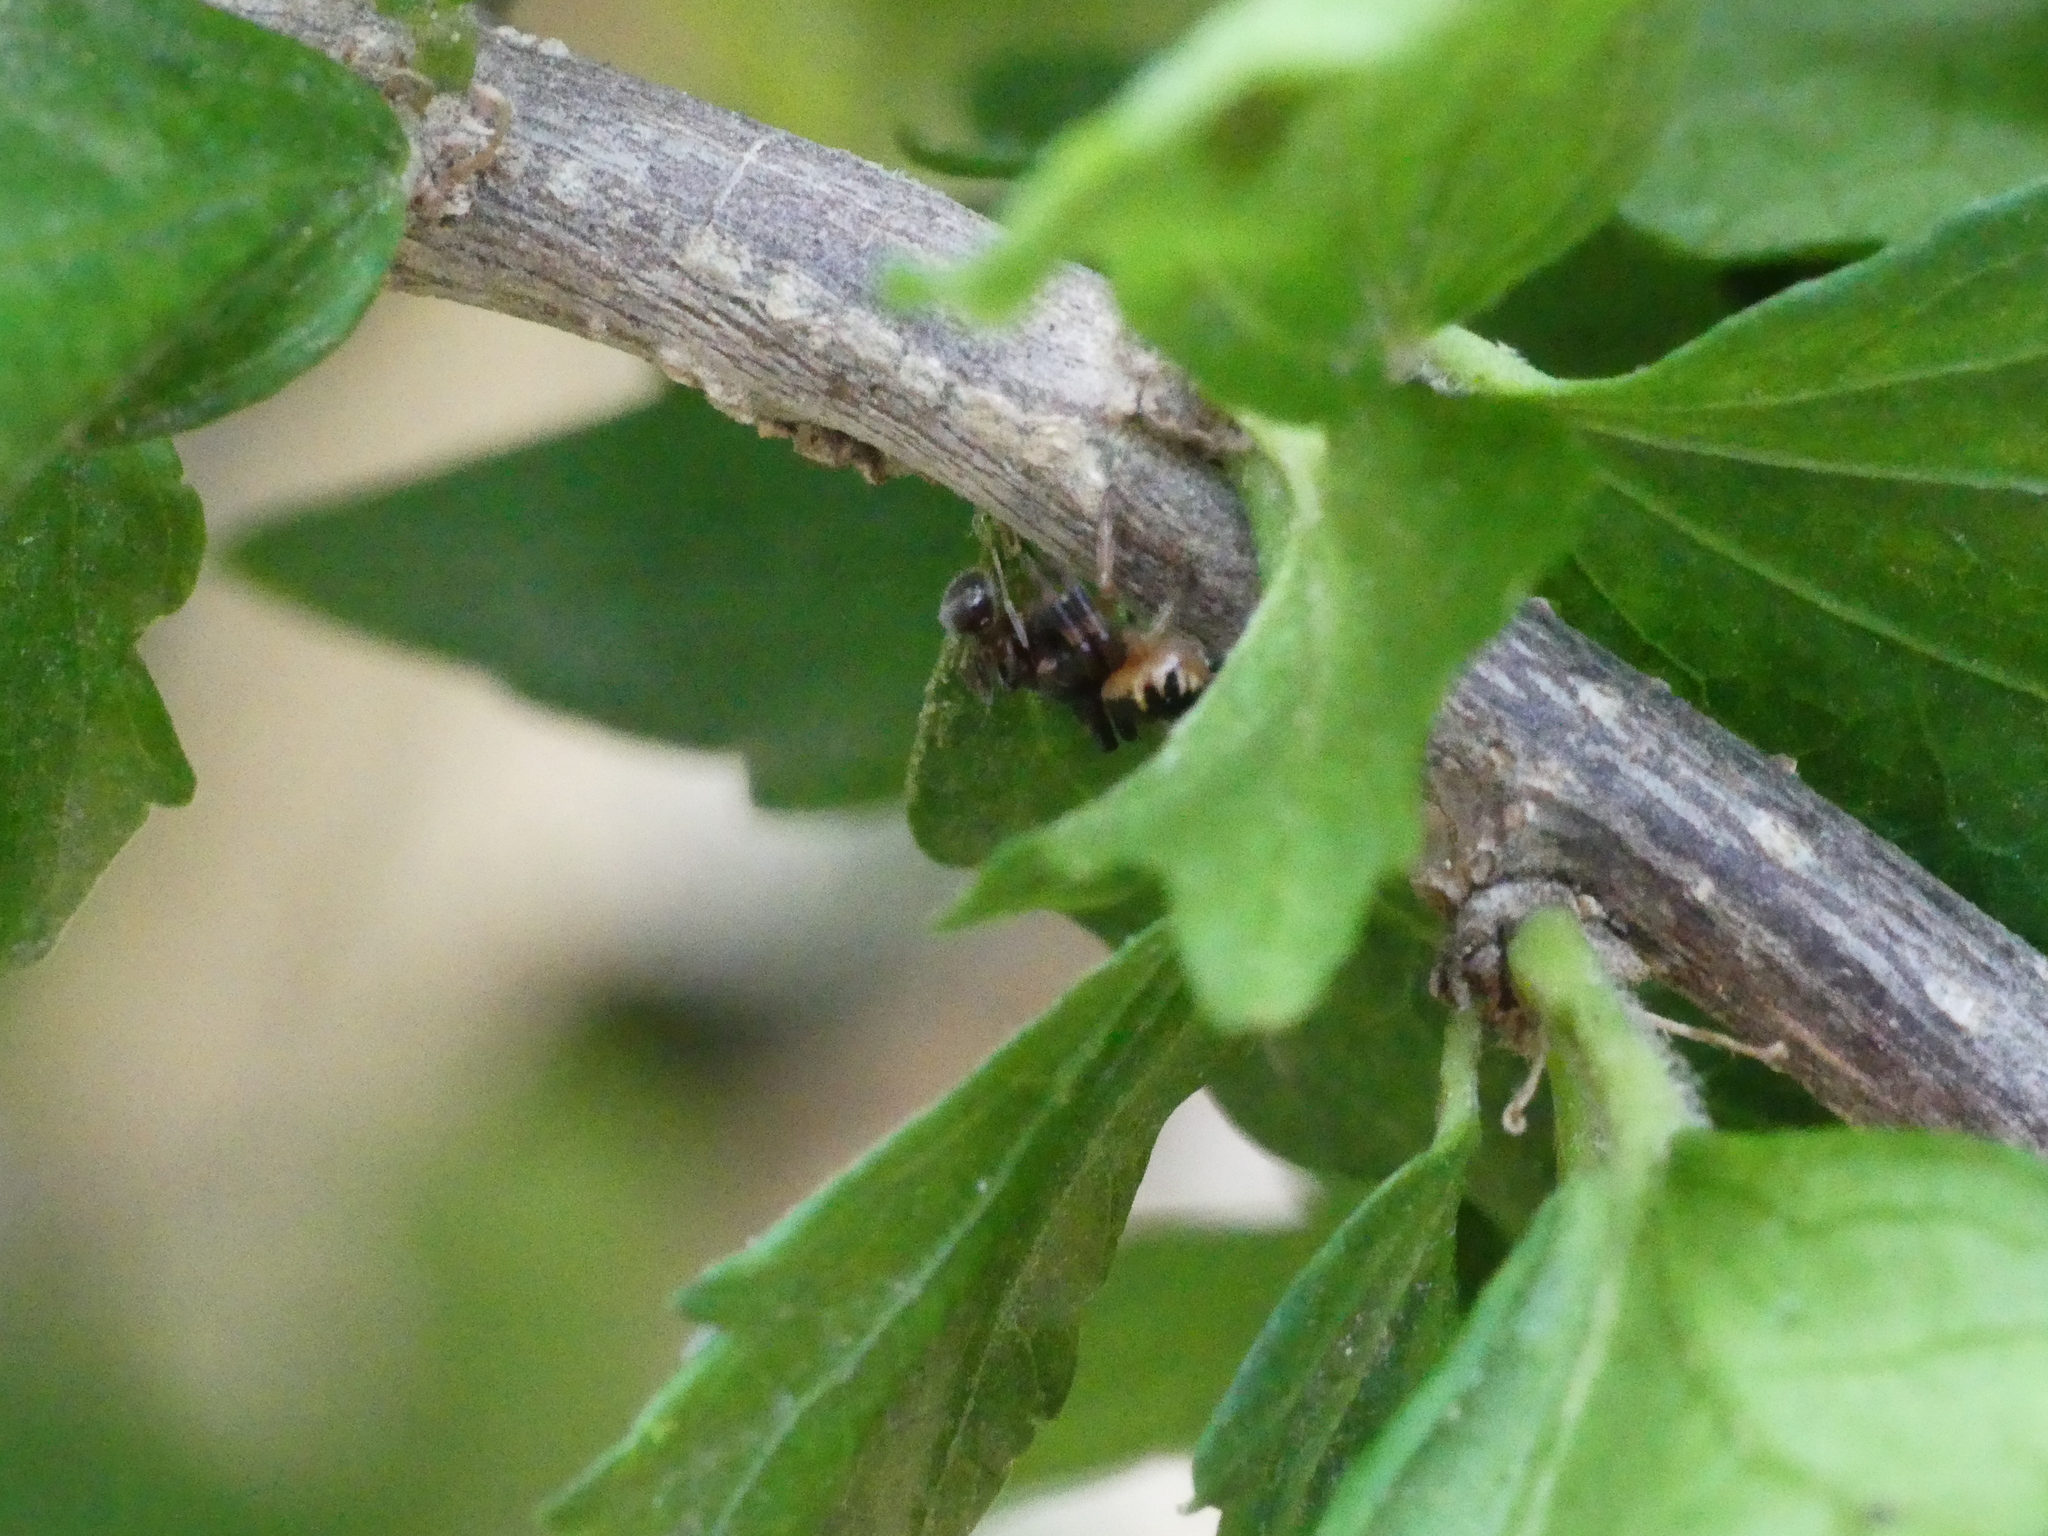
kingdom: Animalia
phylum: Arthropoda
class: Arachnida
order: Araneae
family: Thomisidae
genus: Synema
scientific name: Synema globosum
